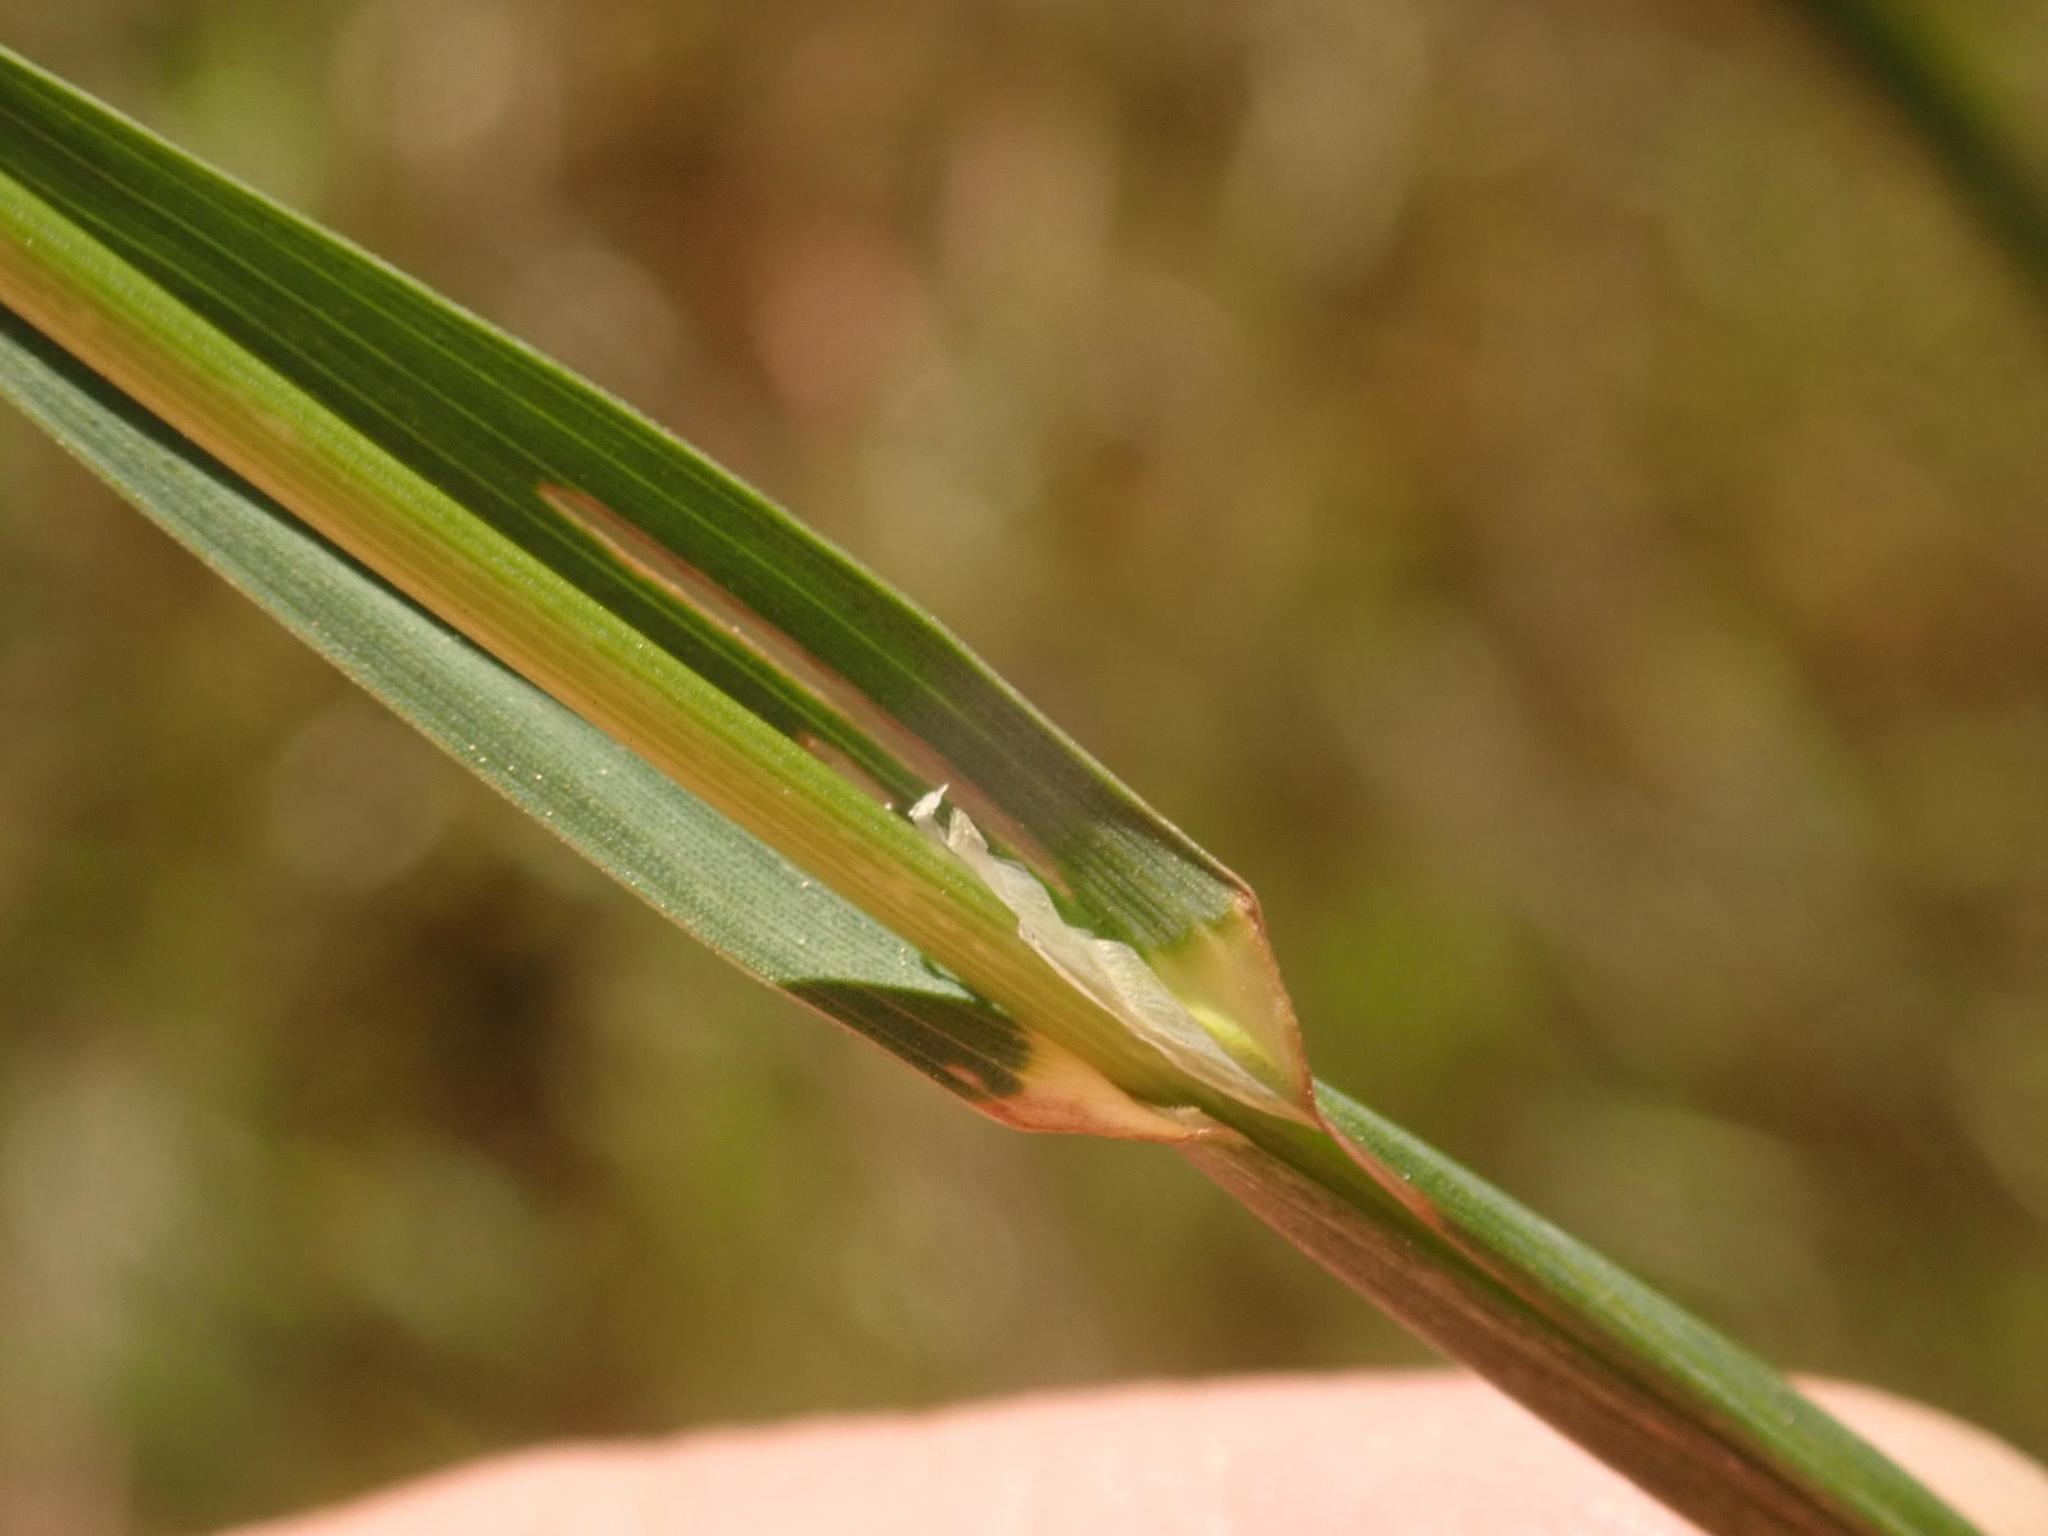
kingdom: Plantae
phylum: Tracheophyta
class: Liliopsida
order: Poales
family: Poaceae
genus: Dactylis
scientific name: Dactylis glomerata
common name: Orchardgrass
